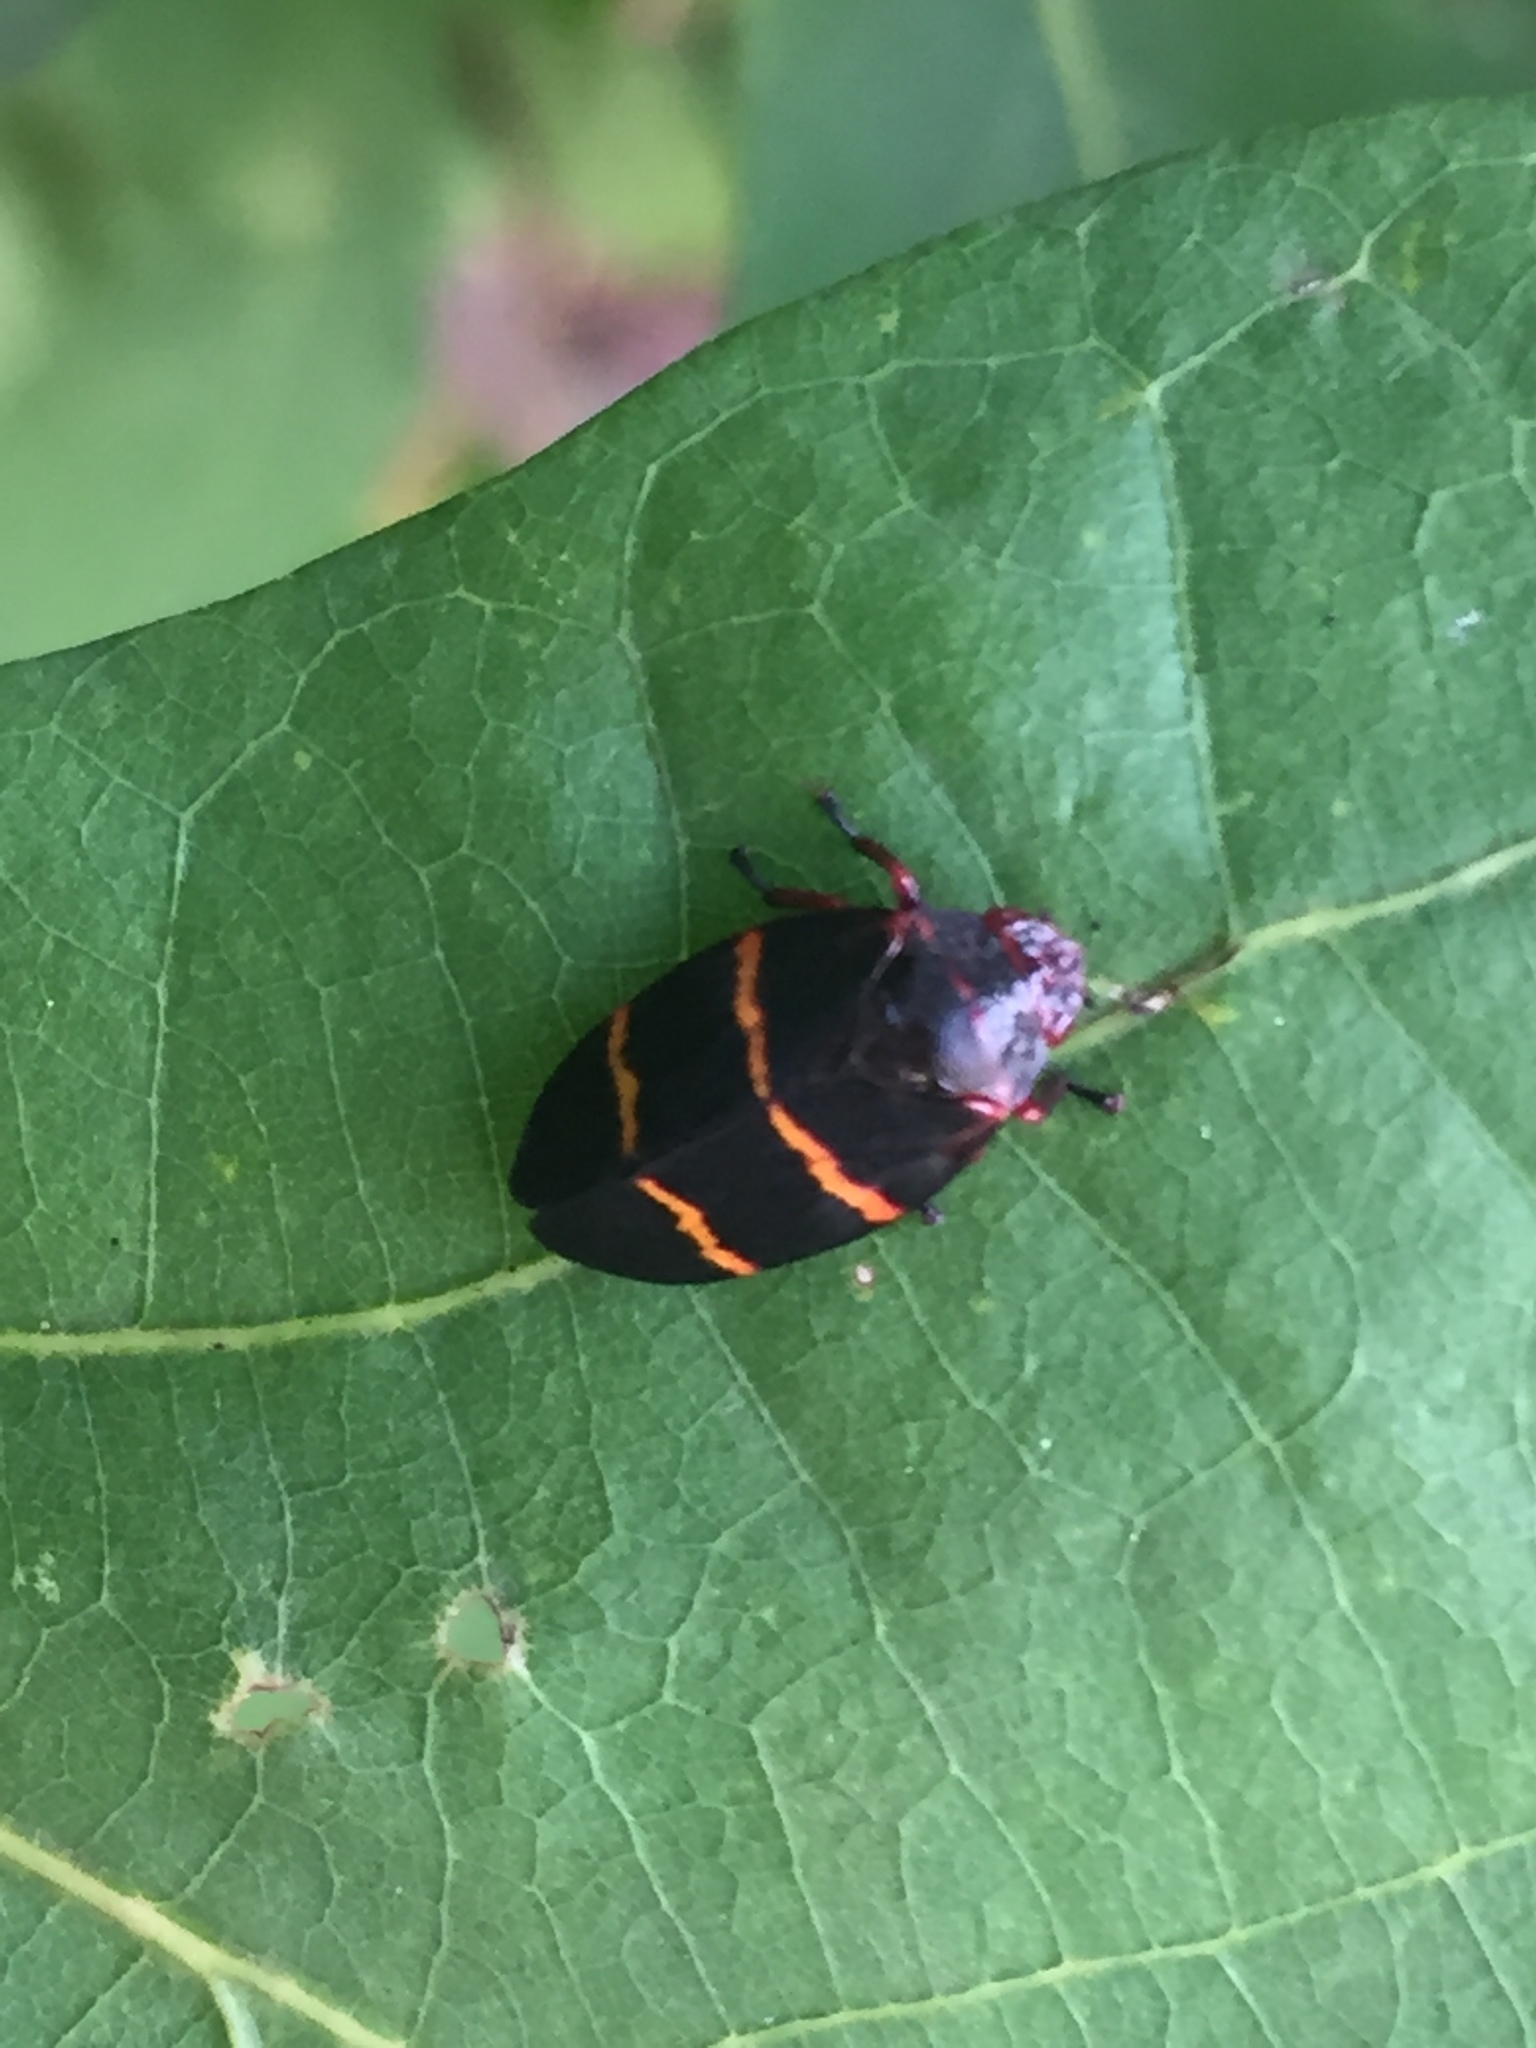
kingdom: Animalia
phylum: Arthropoda
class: Insecta
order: Hemiptera
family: Cercopidae
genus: Prosapia
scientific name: Prosapia bicincta
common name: Twolined spittlebug
